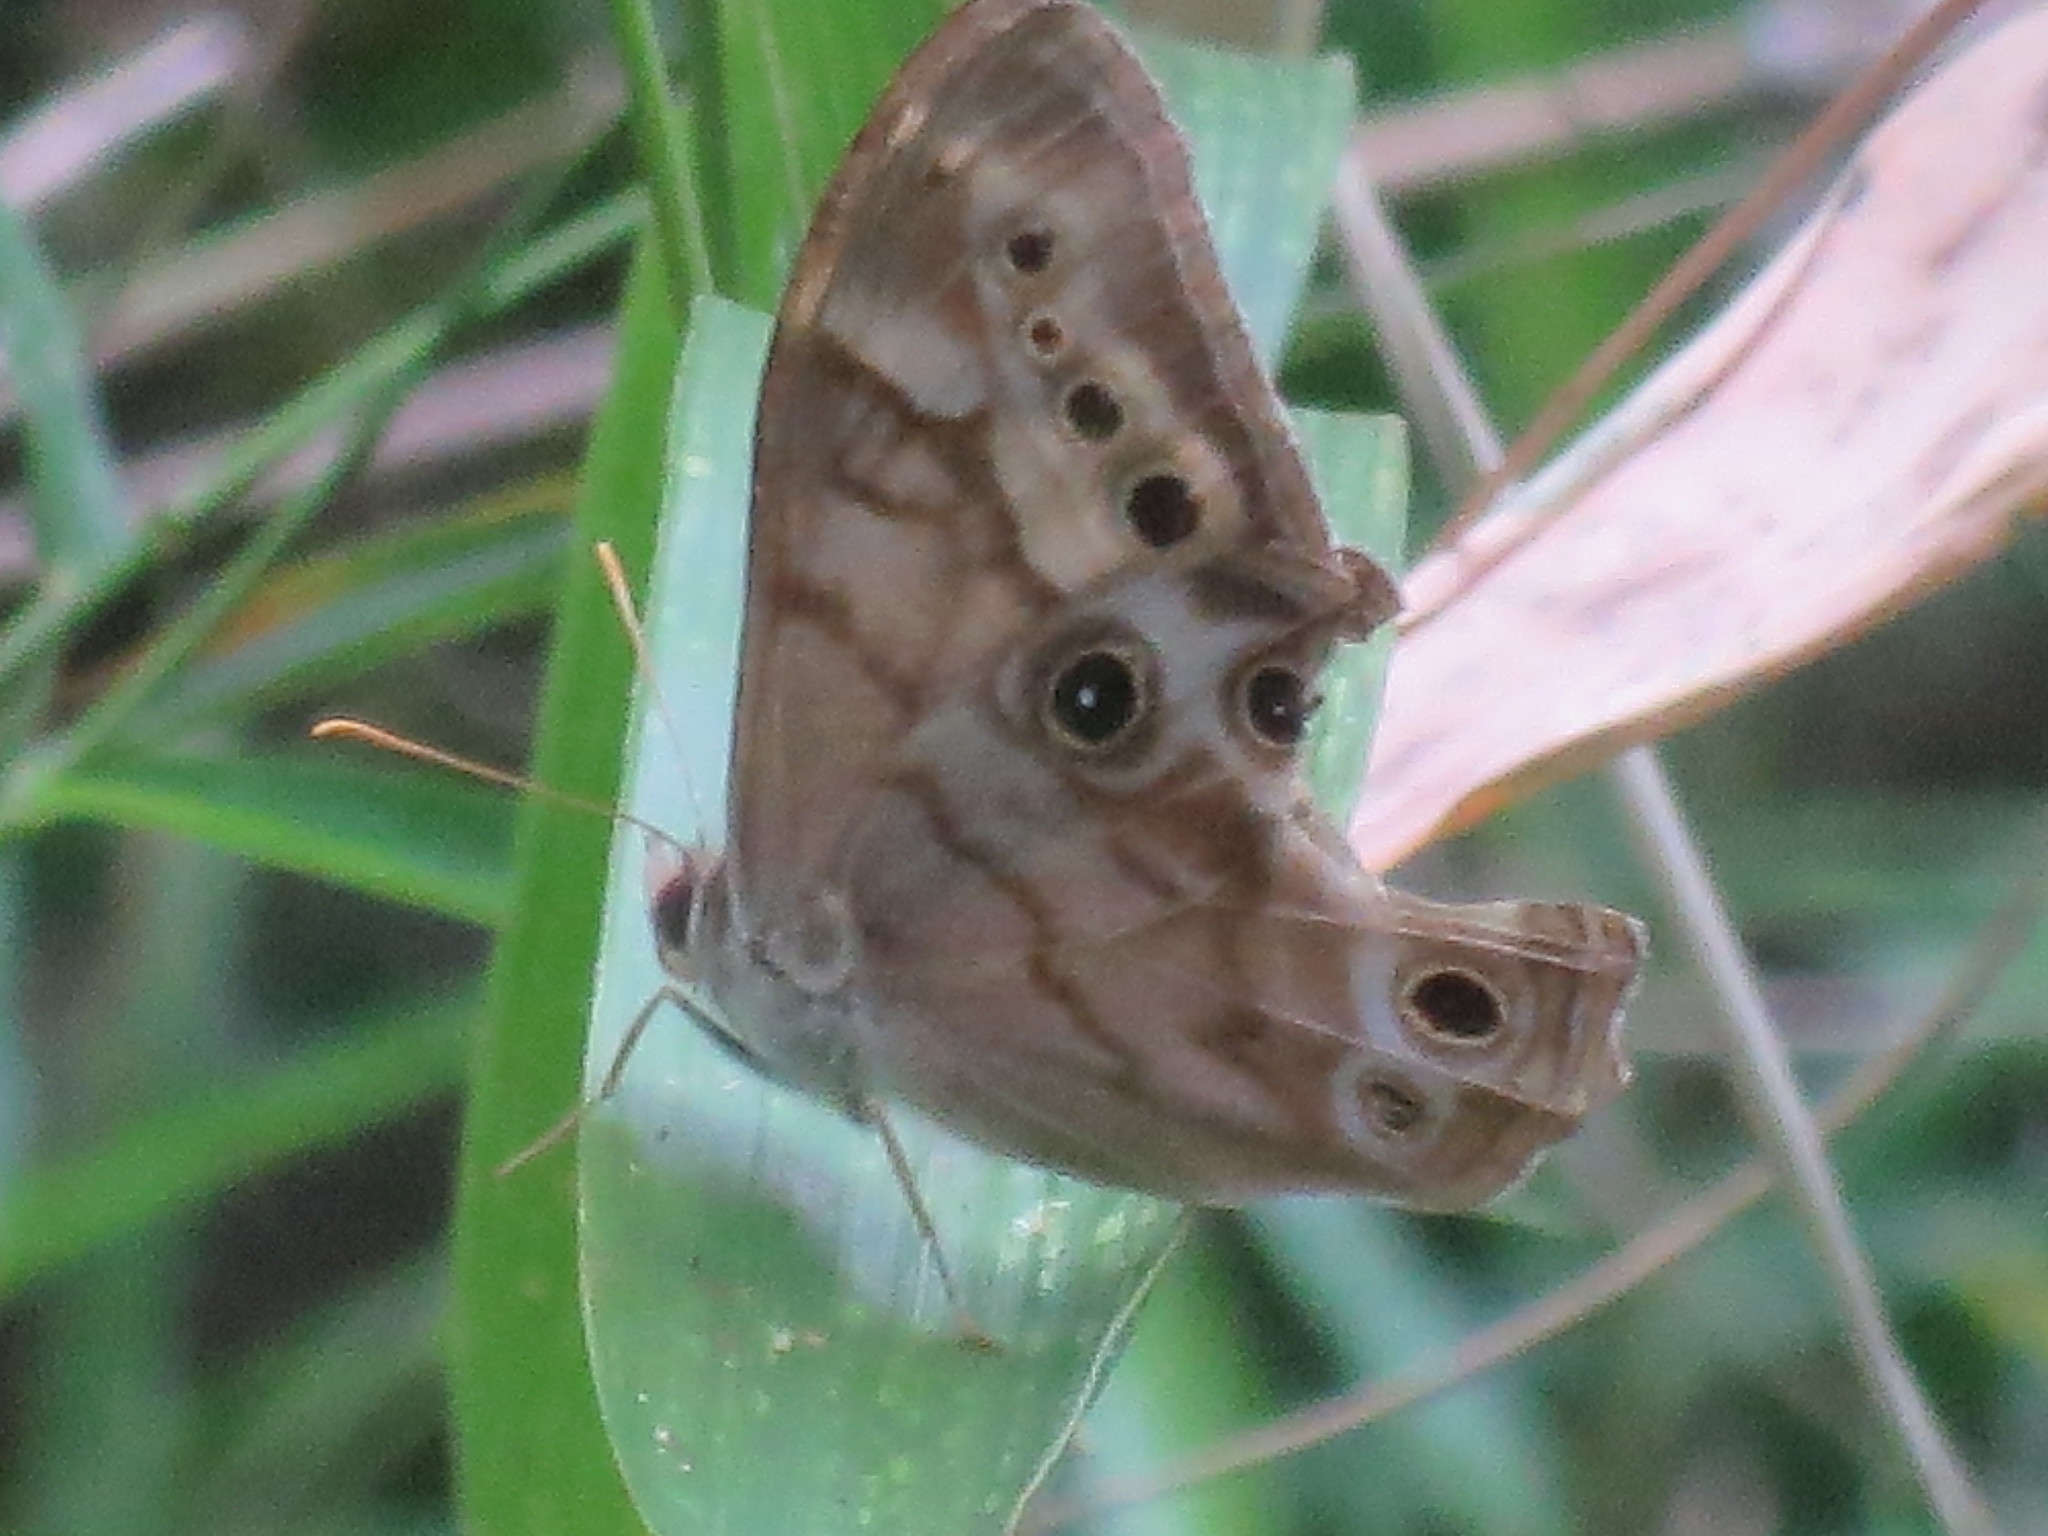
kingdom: Animalia
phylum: Arthropoda
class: Insecta
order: Lepidoptera
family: Nymphalidae
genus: Enodia
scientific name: Enodia portlandia
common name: Southern pearly-eye
